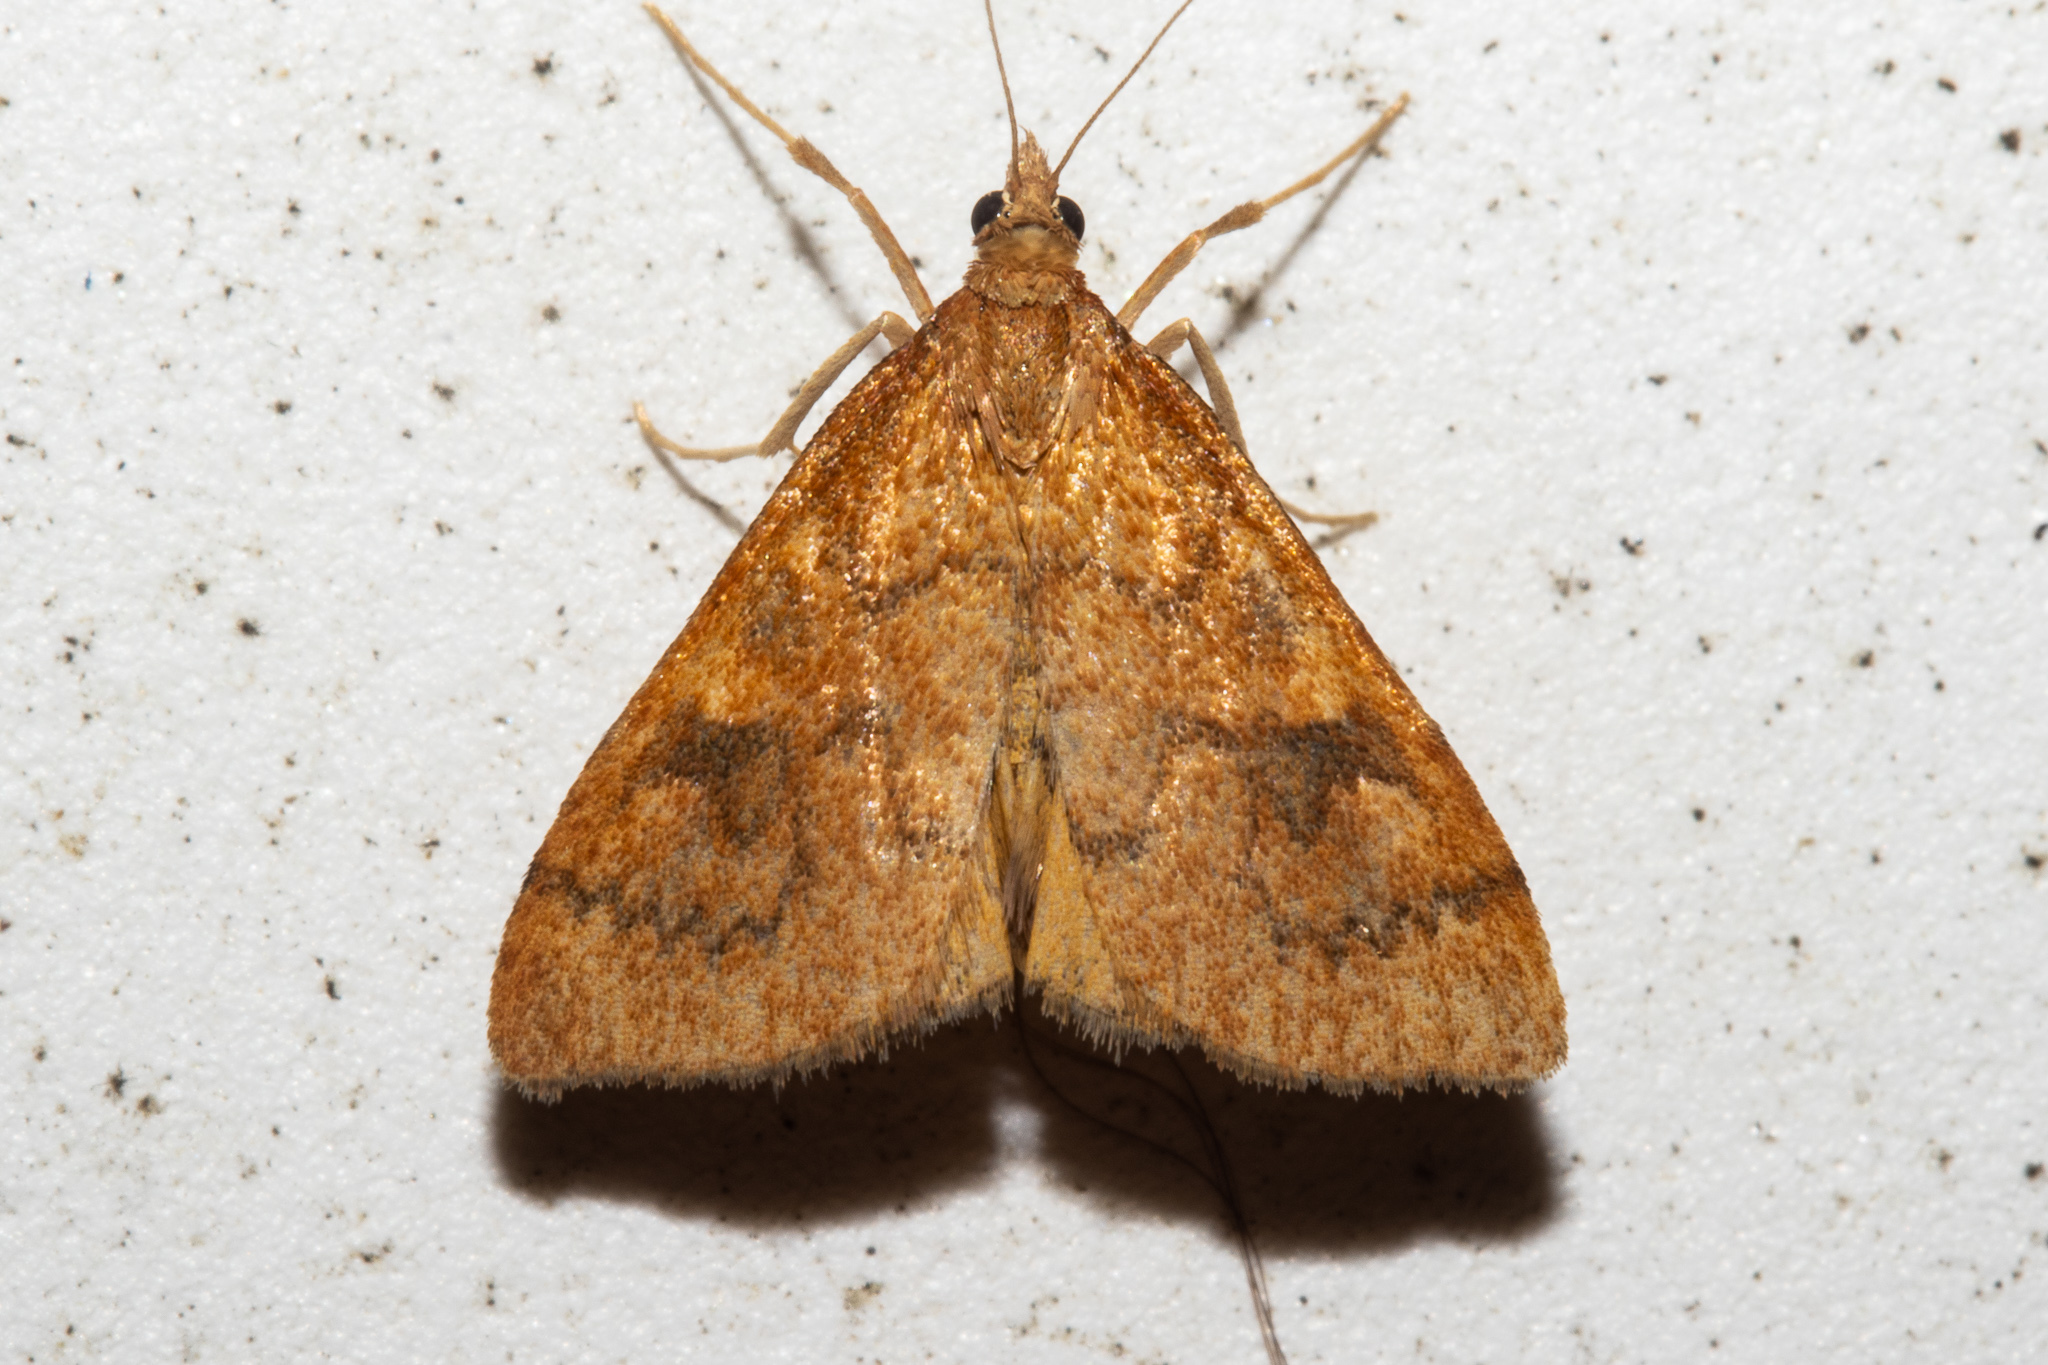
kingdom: Animalia
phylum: Arthropoda
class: Insecta
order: Lepidoptera
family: Crambidae
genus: Udea
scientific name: Udea Mnesictena flavidalis
